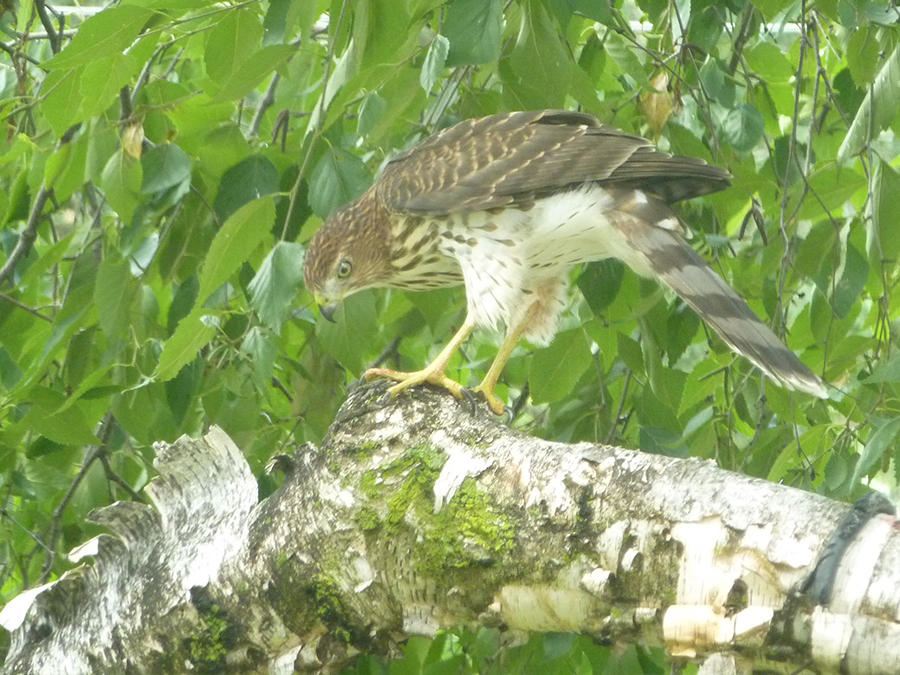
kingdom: Animalia
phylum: Chordata
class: Aves
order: Accipitriformes
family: Accipitridae
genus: Accipiter
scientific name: Accipiter cooperii
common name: Cooper's hawk
